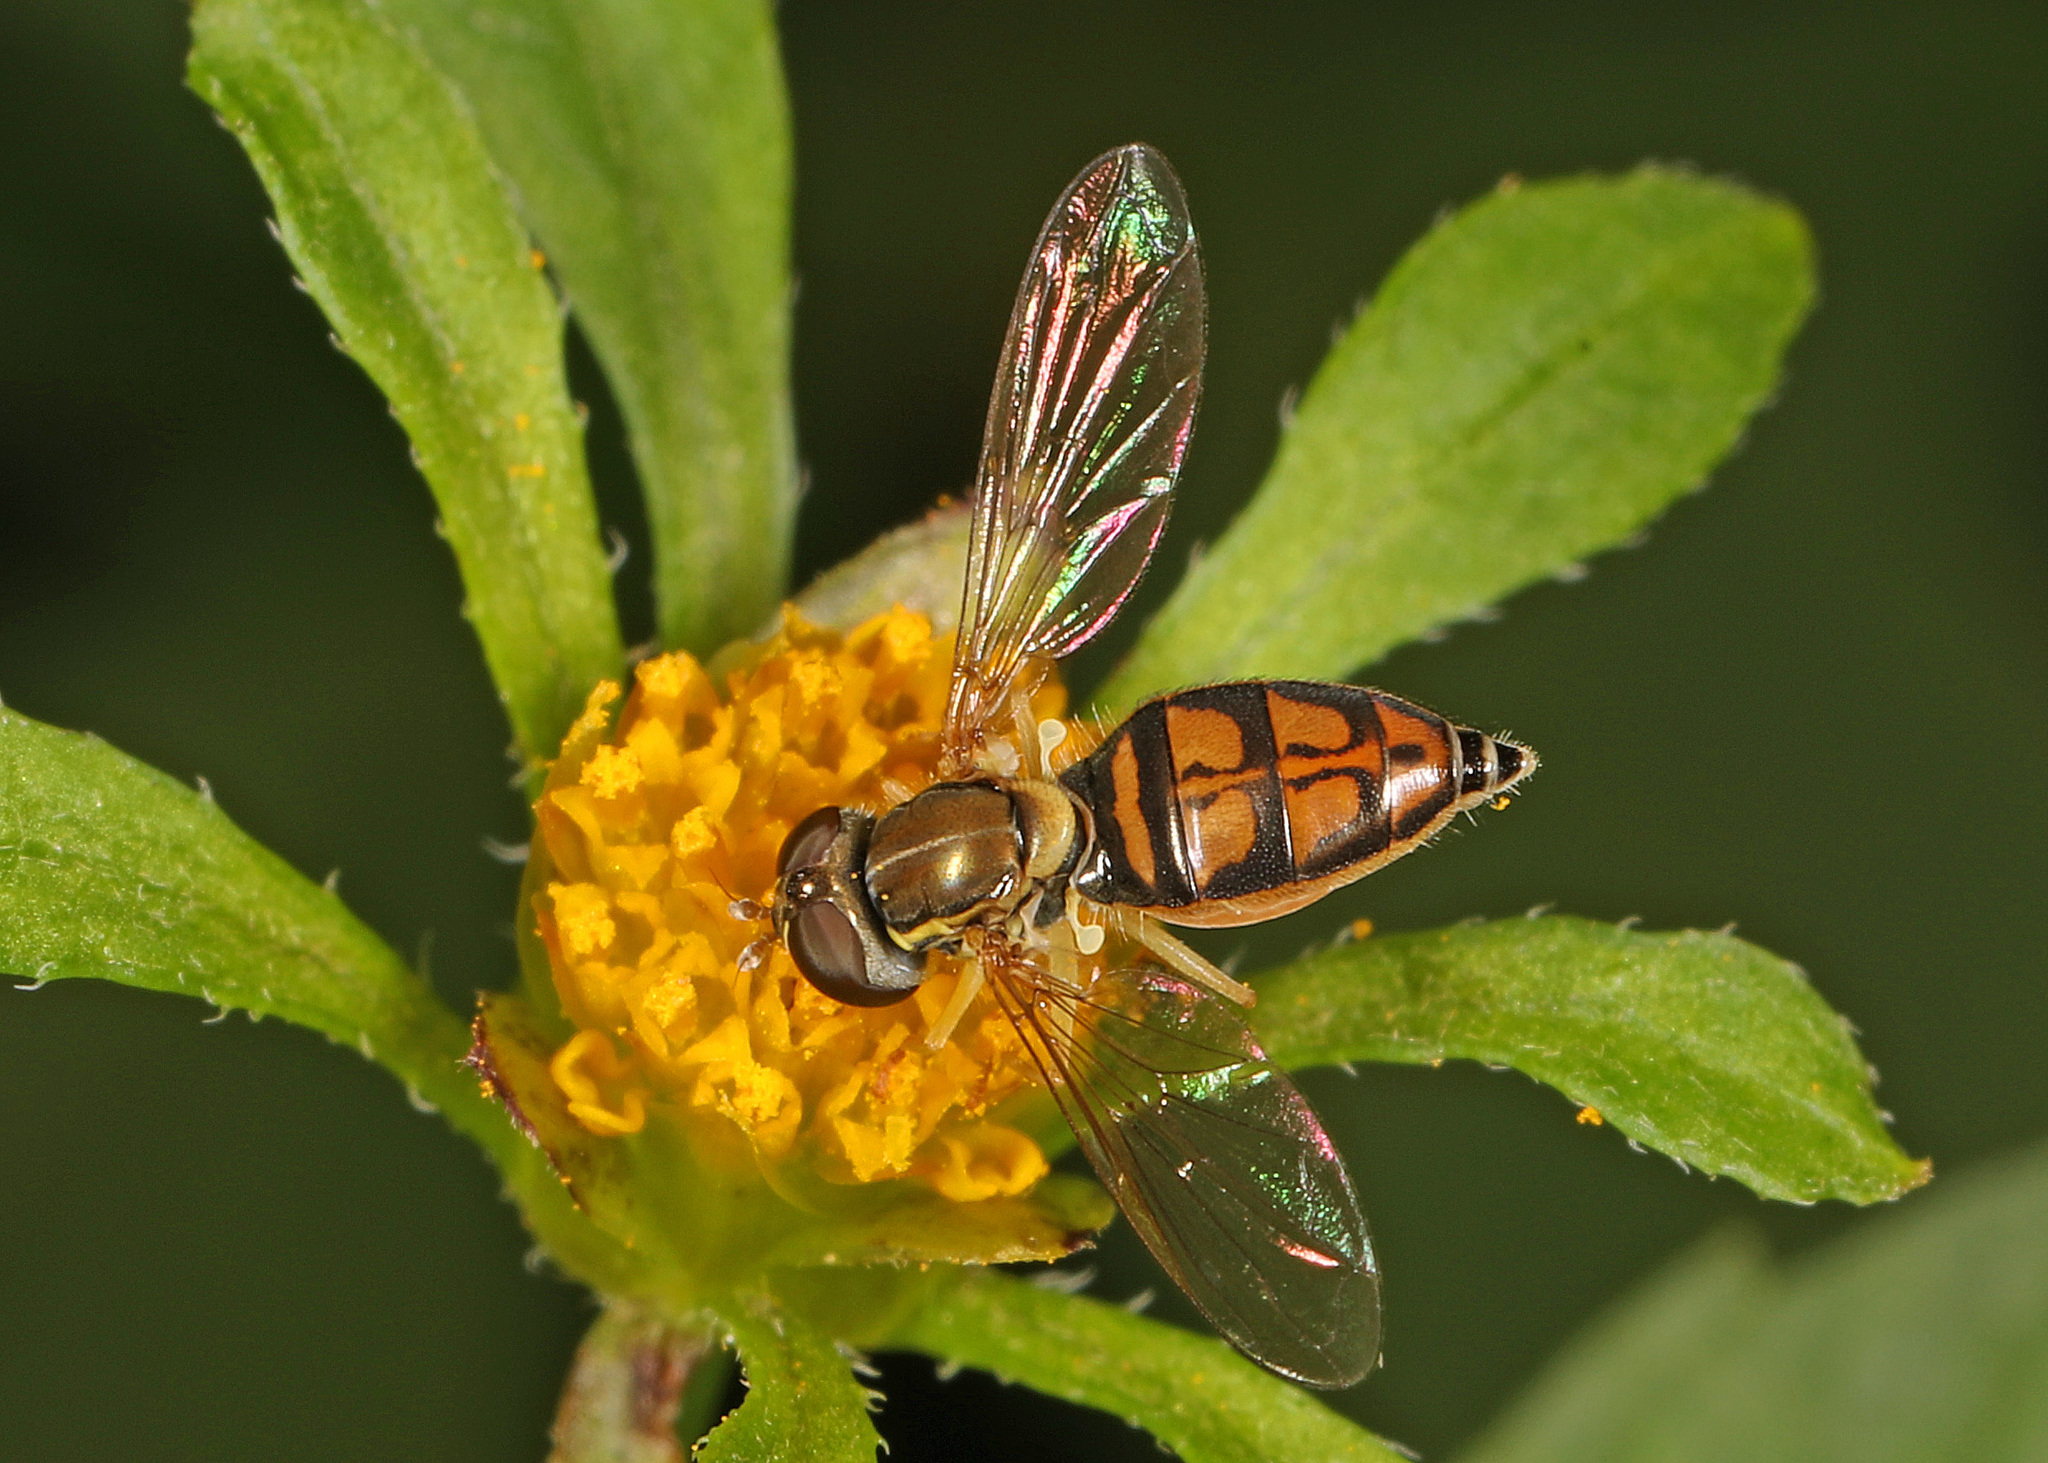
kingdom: Animalia
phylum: Arthropoda
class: Insecta
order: Diptera
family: Syrphidae
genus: Toxomerus
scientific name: Toxomerus marginatus
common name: Syrphid fly
